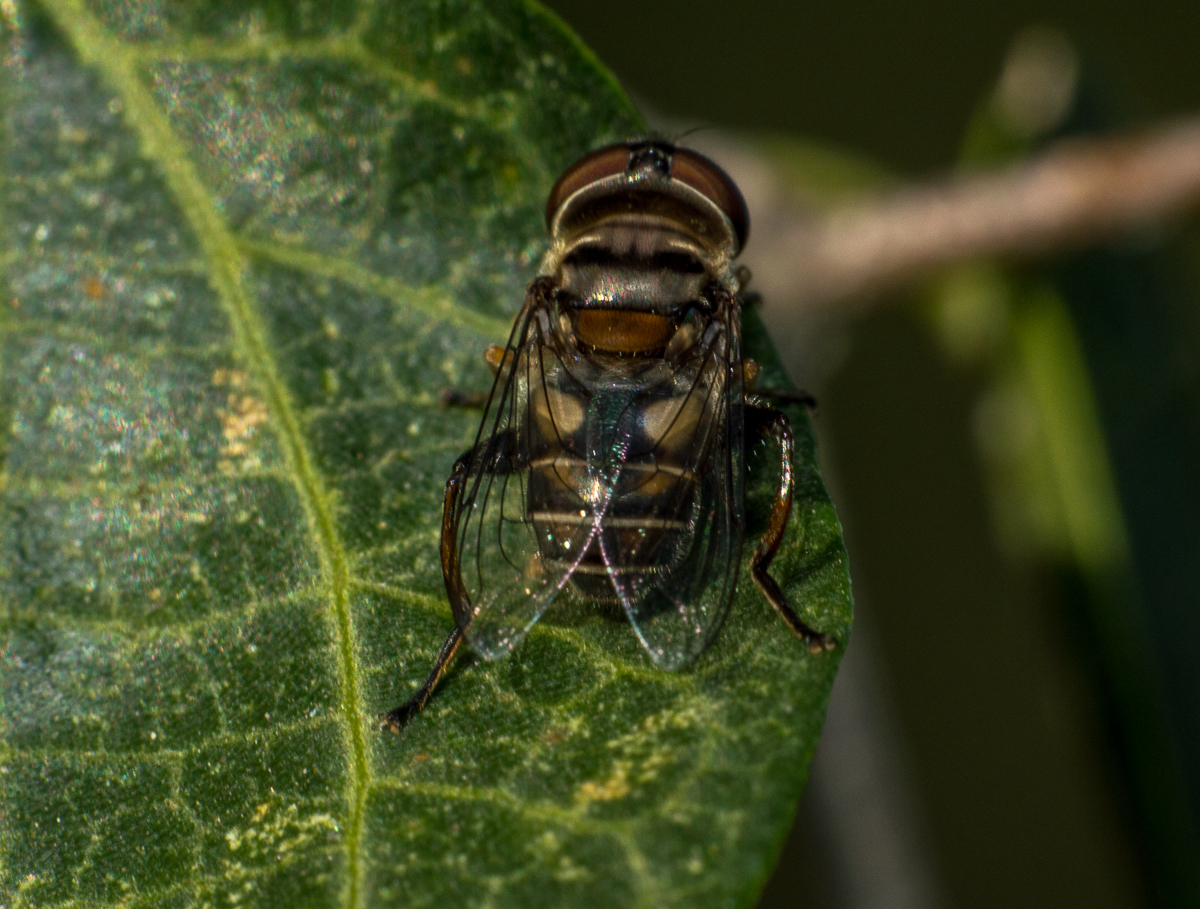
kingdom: Animalia
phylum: Arthropoda
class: Insecta
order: Diptera
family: Syrphidae
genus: Palpada
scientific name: Palpada
